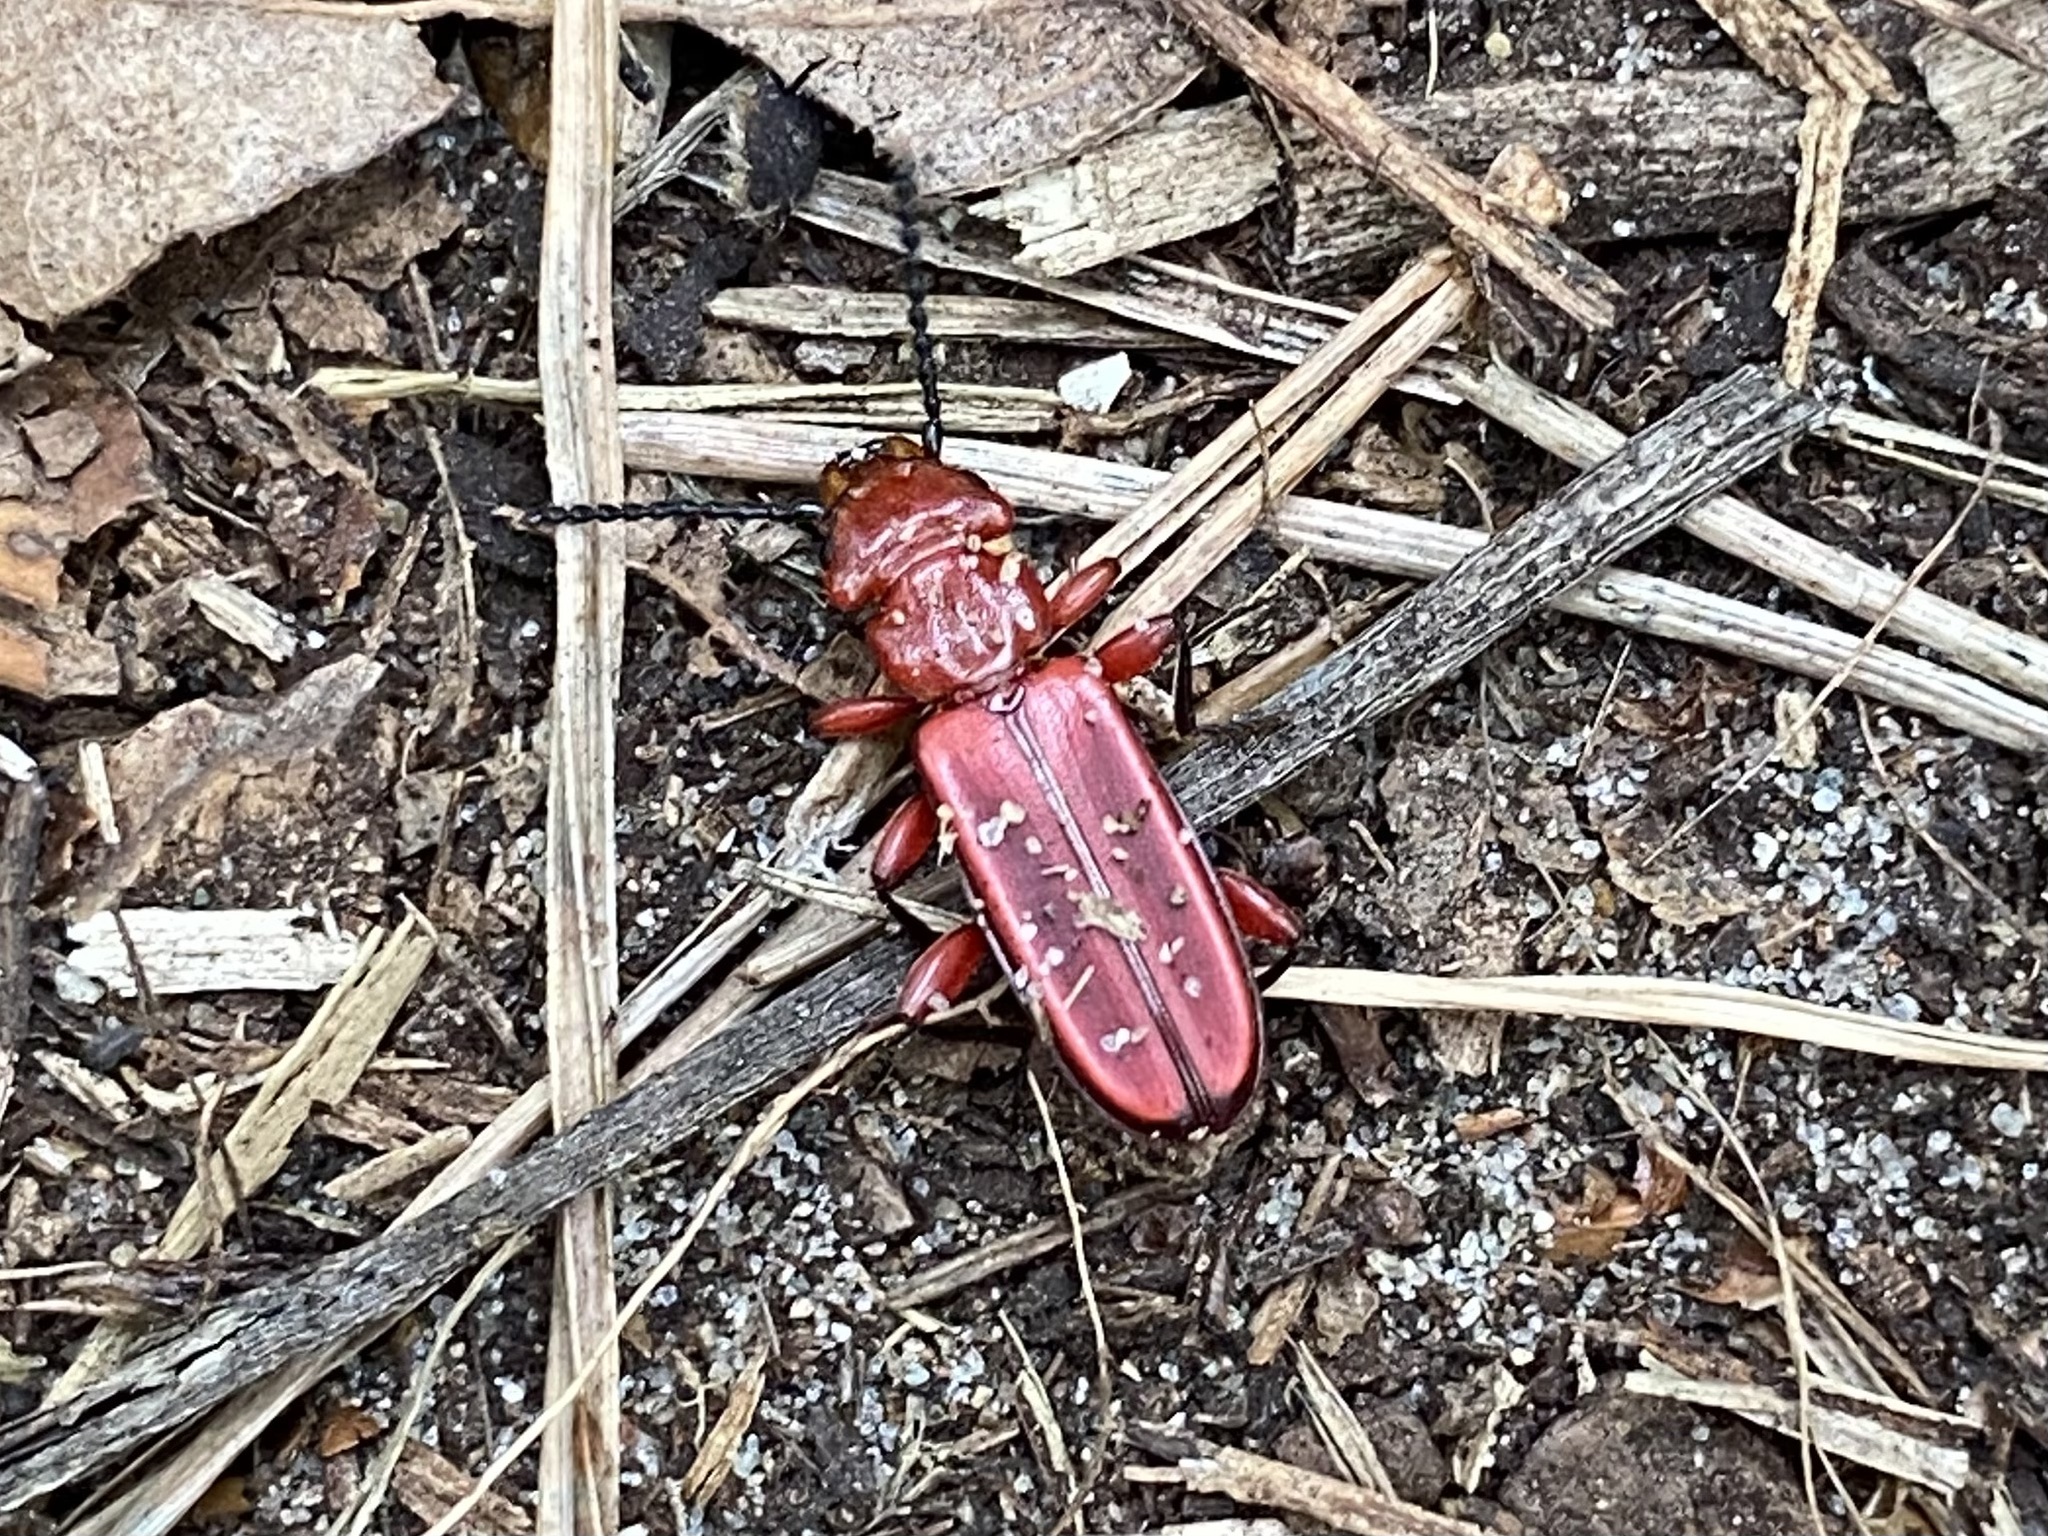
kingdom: Animalia
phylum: Arthropoda
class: Insecta
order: Coleoptera
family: Cucujidae
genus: Cucujus
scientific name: Cucujus clavipes
